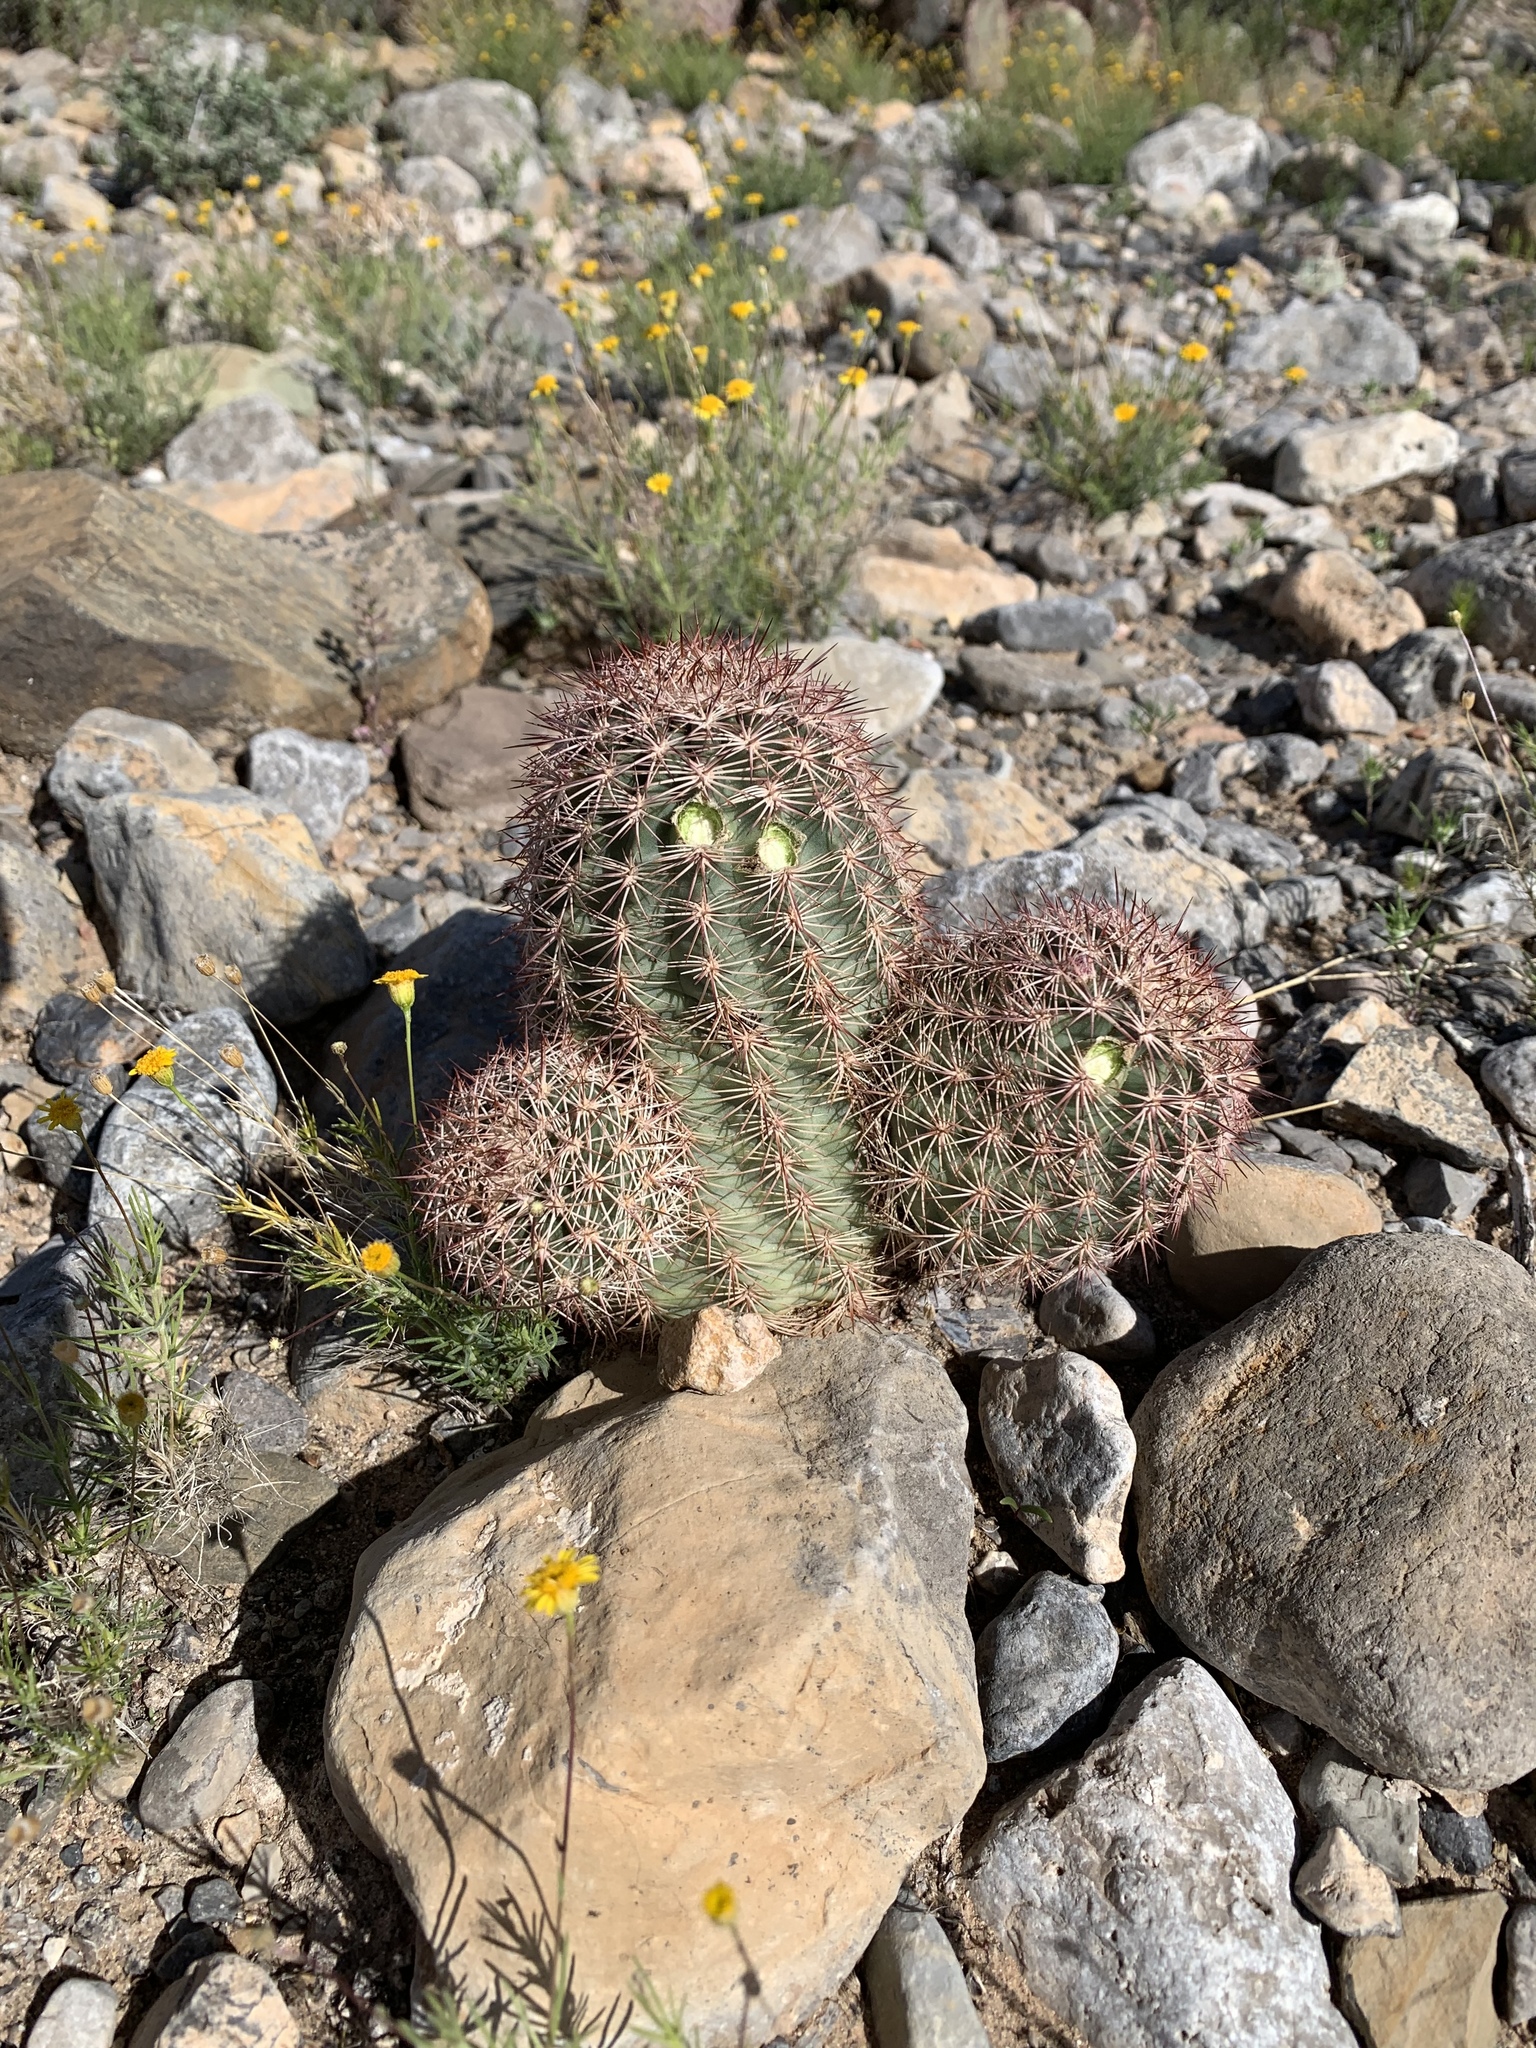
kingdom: Plantae
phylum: Tracheophyta
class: Magnoliopsida
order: Caryophyllales
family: Cactaceae
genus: Echinocereus
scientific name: Echinocereus dasyacanthus
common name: Spiny hedgehog cactus
